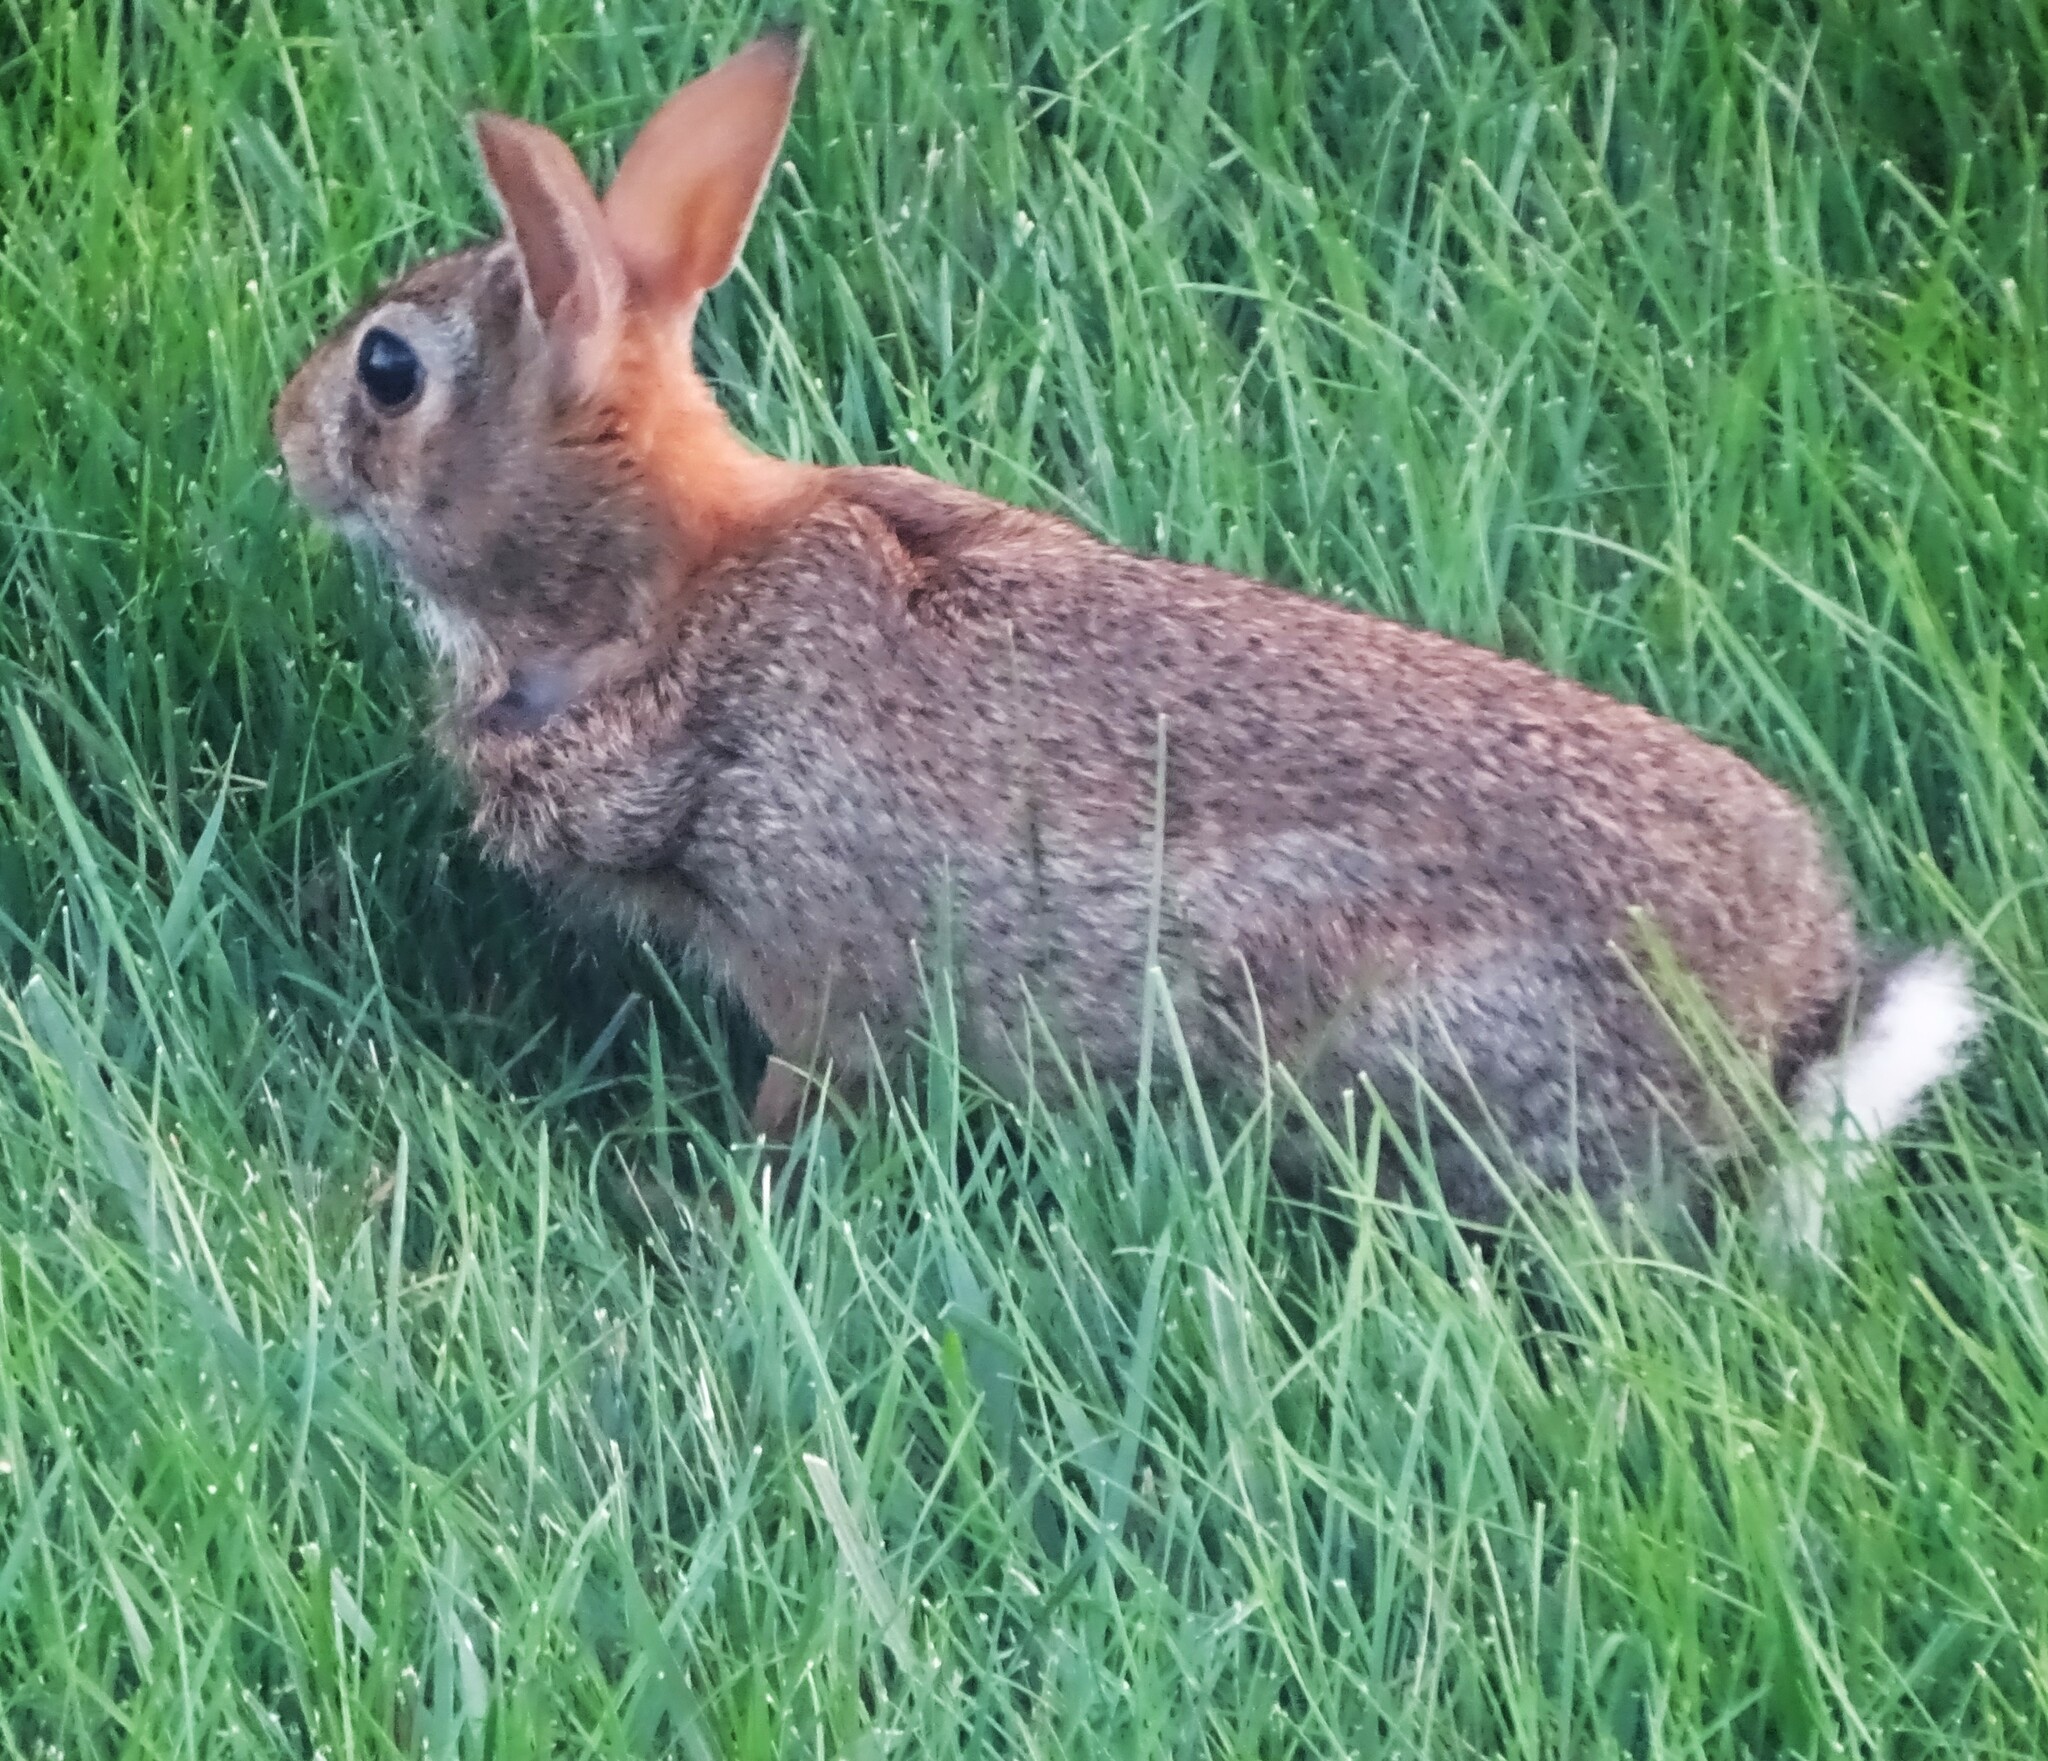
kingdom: Animalia
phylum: Chordata
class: Mammalia
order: Lagomorpha
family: Leporidae
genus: Sylvilagus
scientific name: Sylvilagus floridanus
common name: Eastern cottontail
